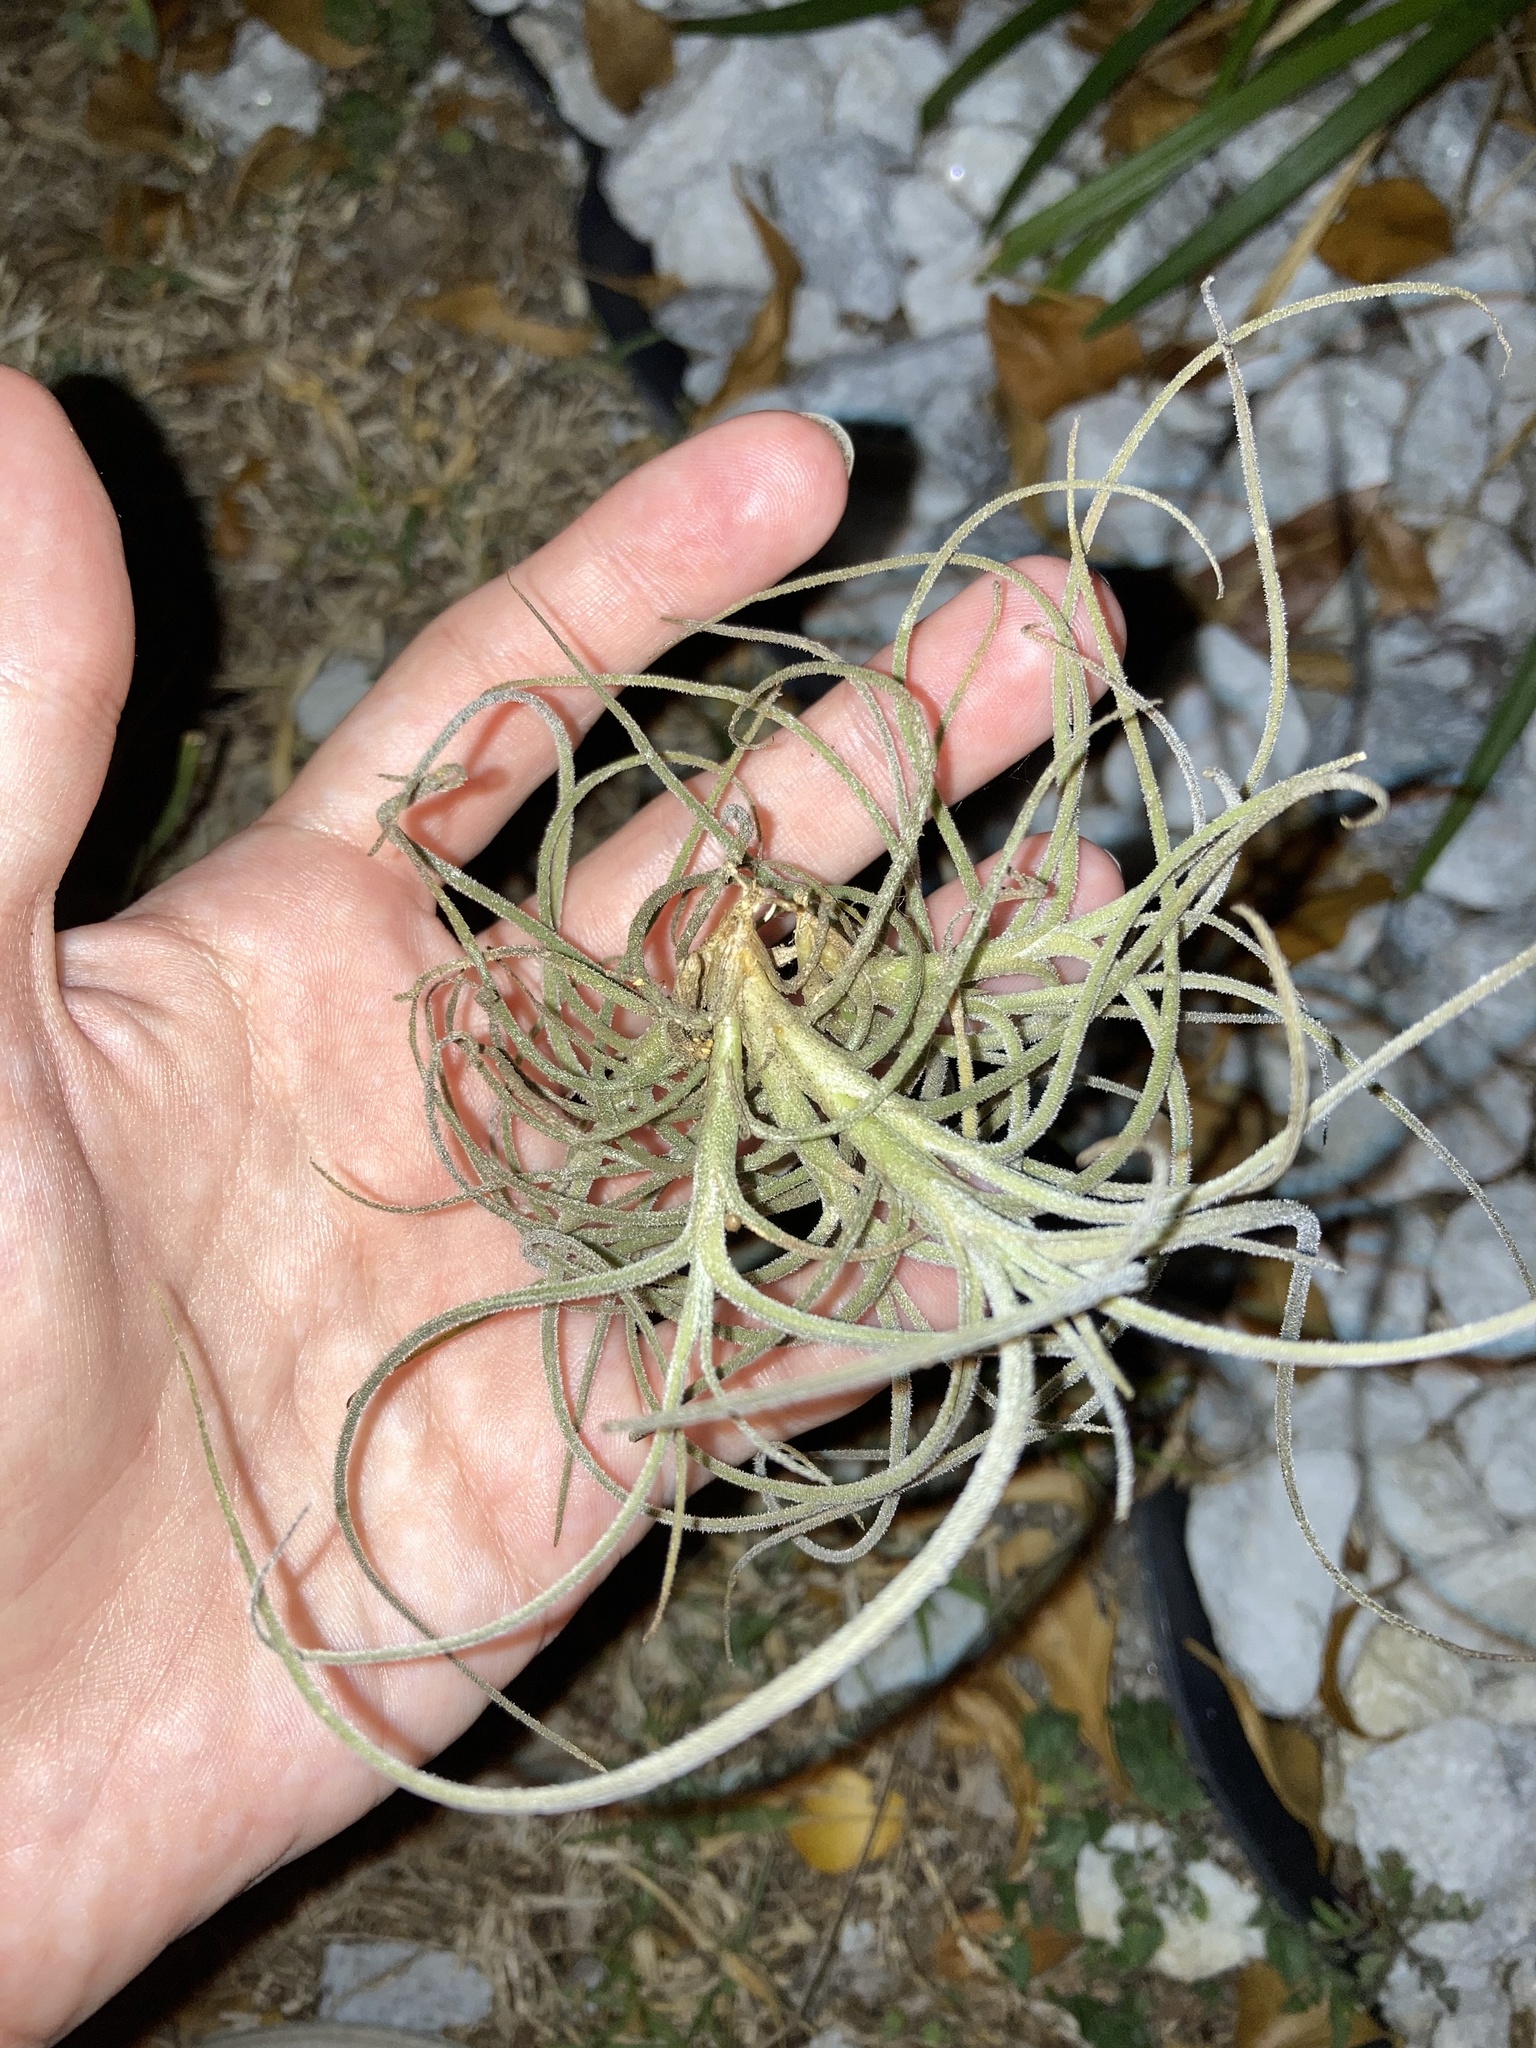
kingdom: Plantae
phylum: Tracheophyta
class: Liliopsida
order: Poales
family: Bromeliaceae
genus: Tillandsia
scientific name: Tillandsia recurvata
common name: Small ballmoss
